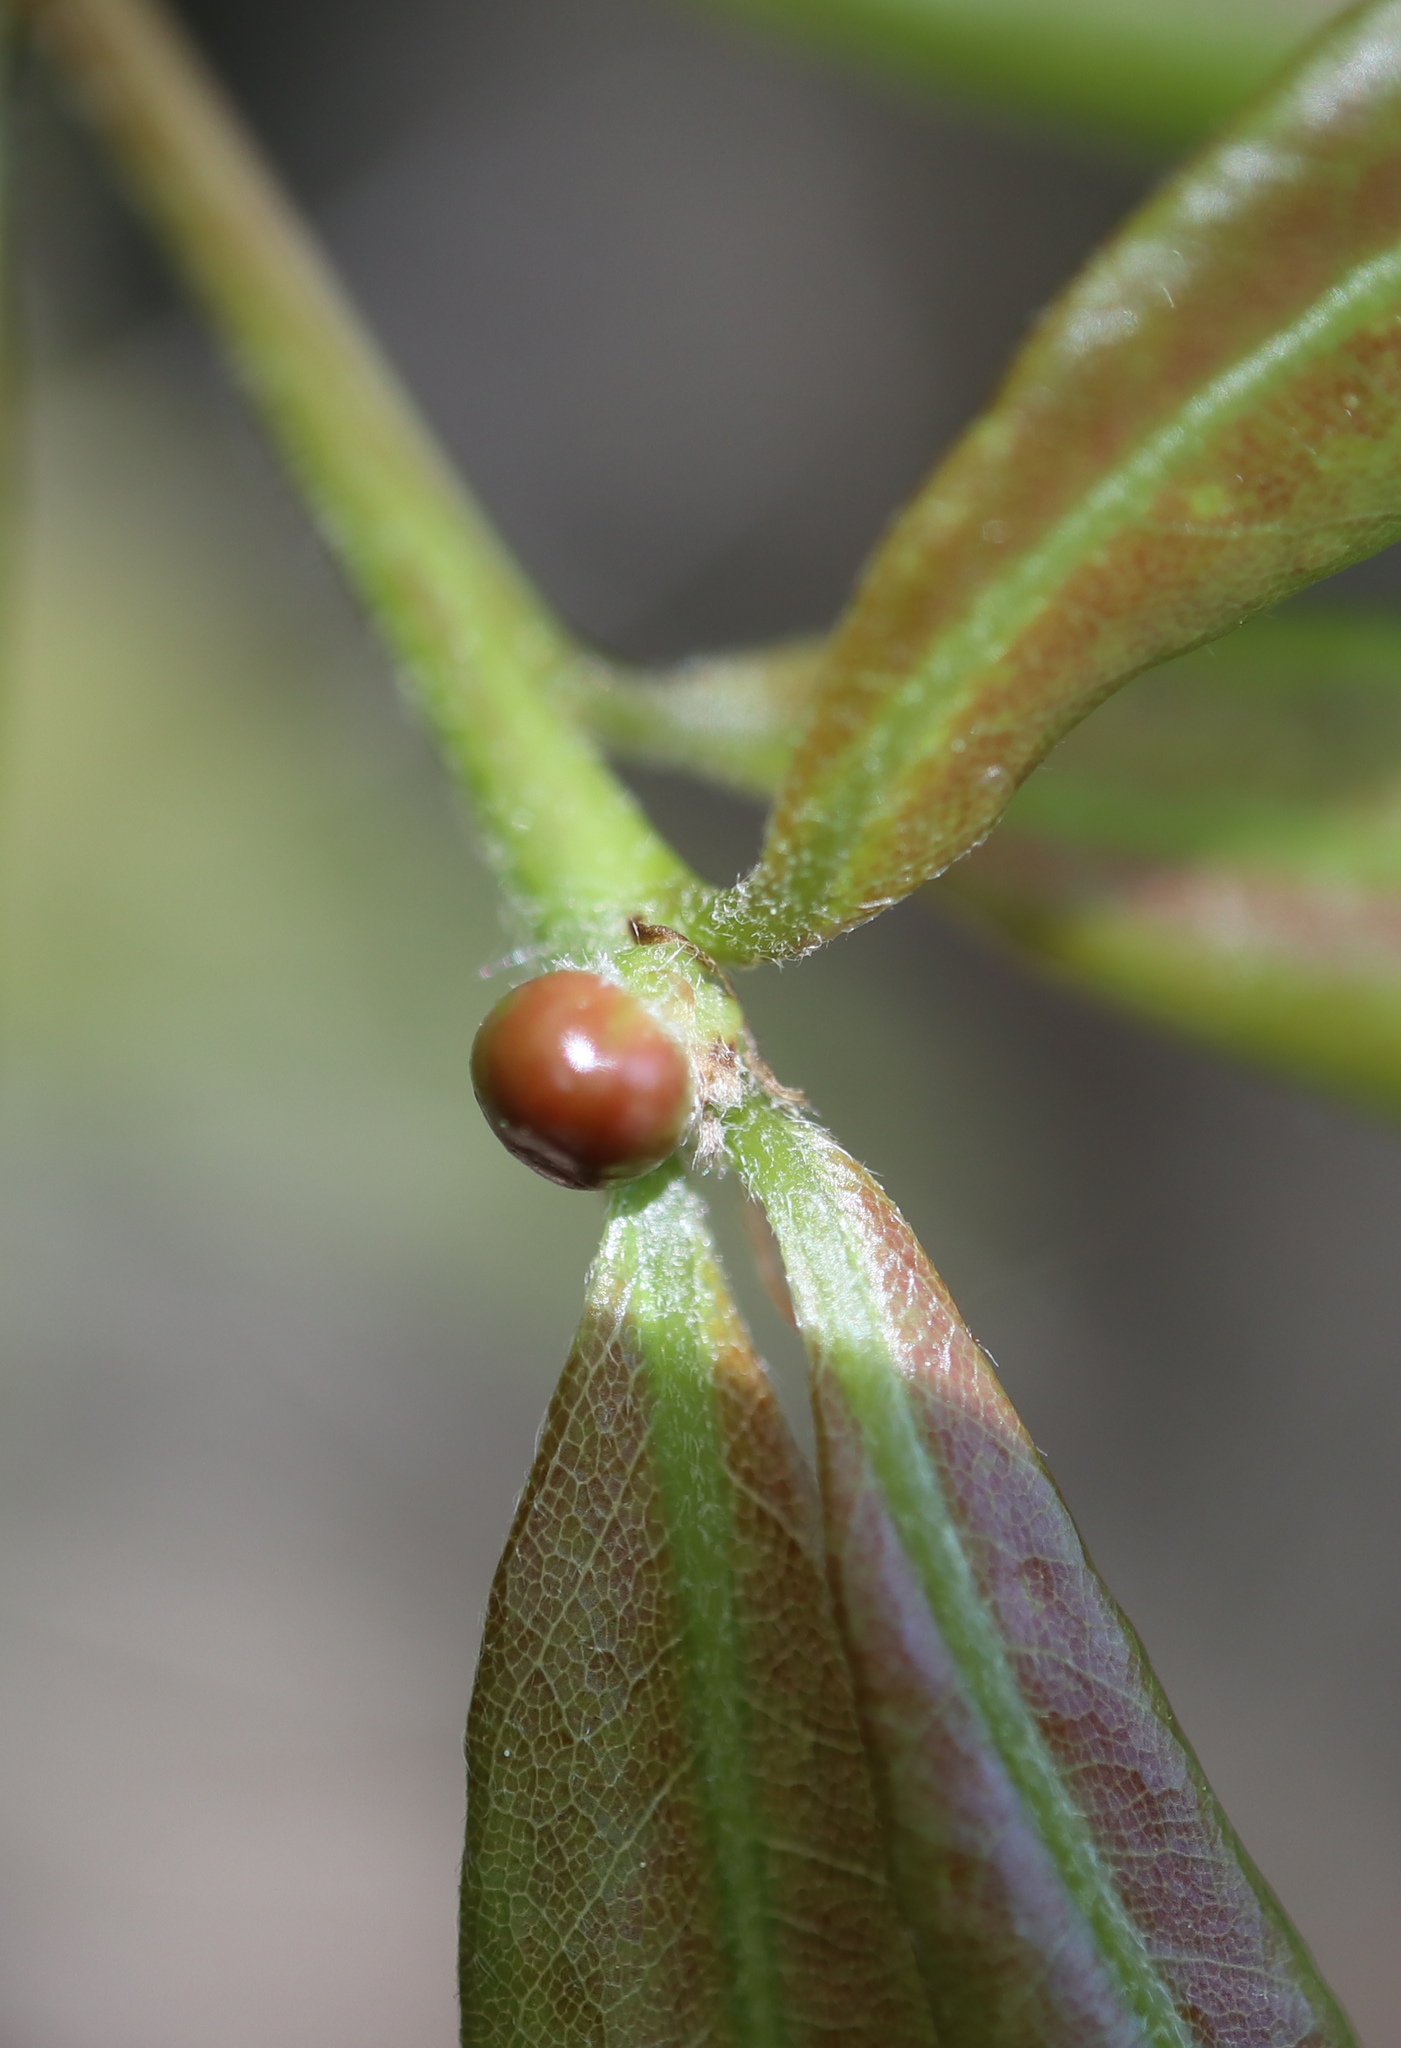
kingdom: Animalia
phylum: Arthropoda
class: Insecta
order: Hymenoptera
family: Cynipidae
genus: Zapatella
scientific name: Zapatella oblata
